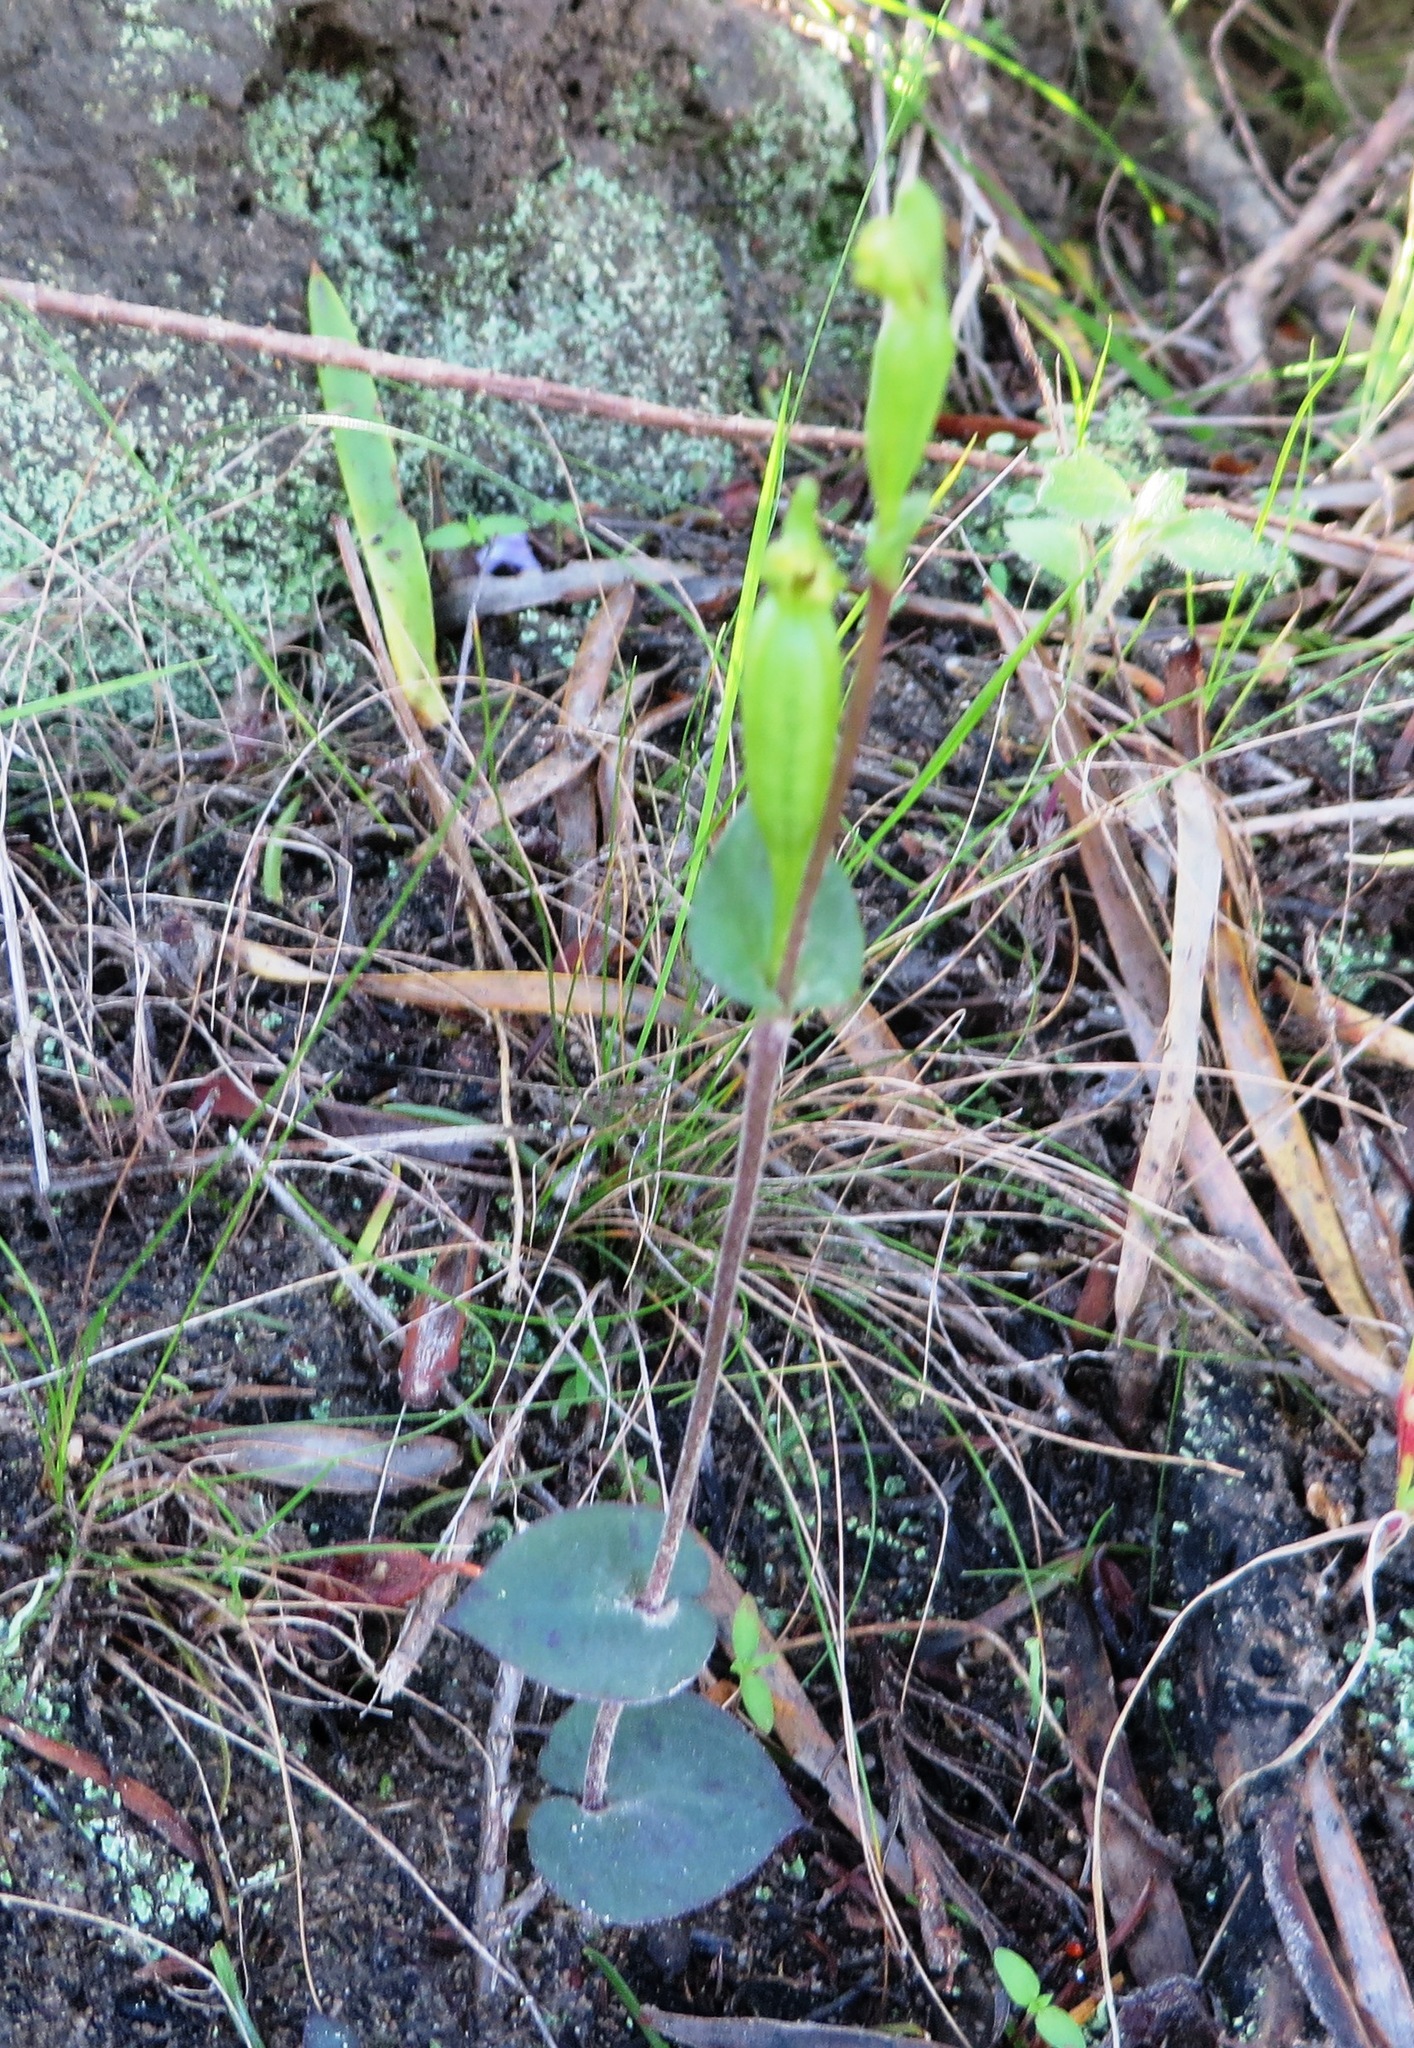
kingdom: Plantae
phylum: Tracheophyta
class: Liliopsida
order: Asparagales
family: Orchidaceae
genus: Disperis
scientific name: Disperis bodkinii
